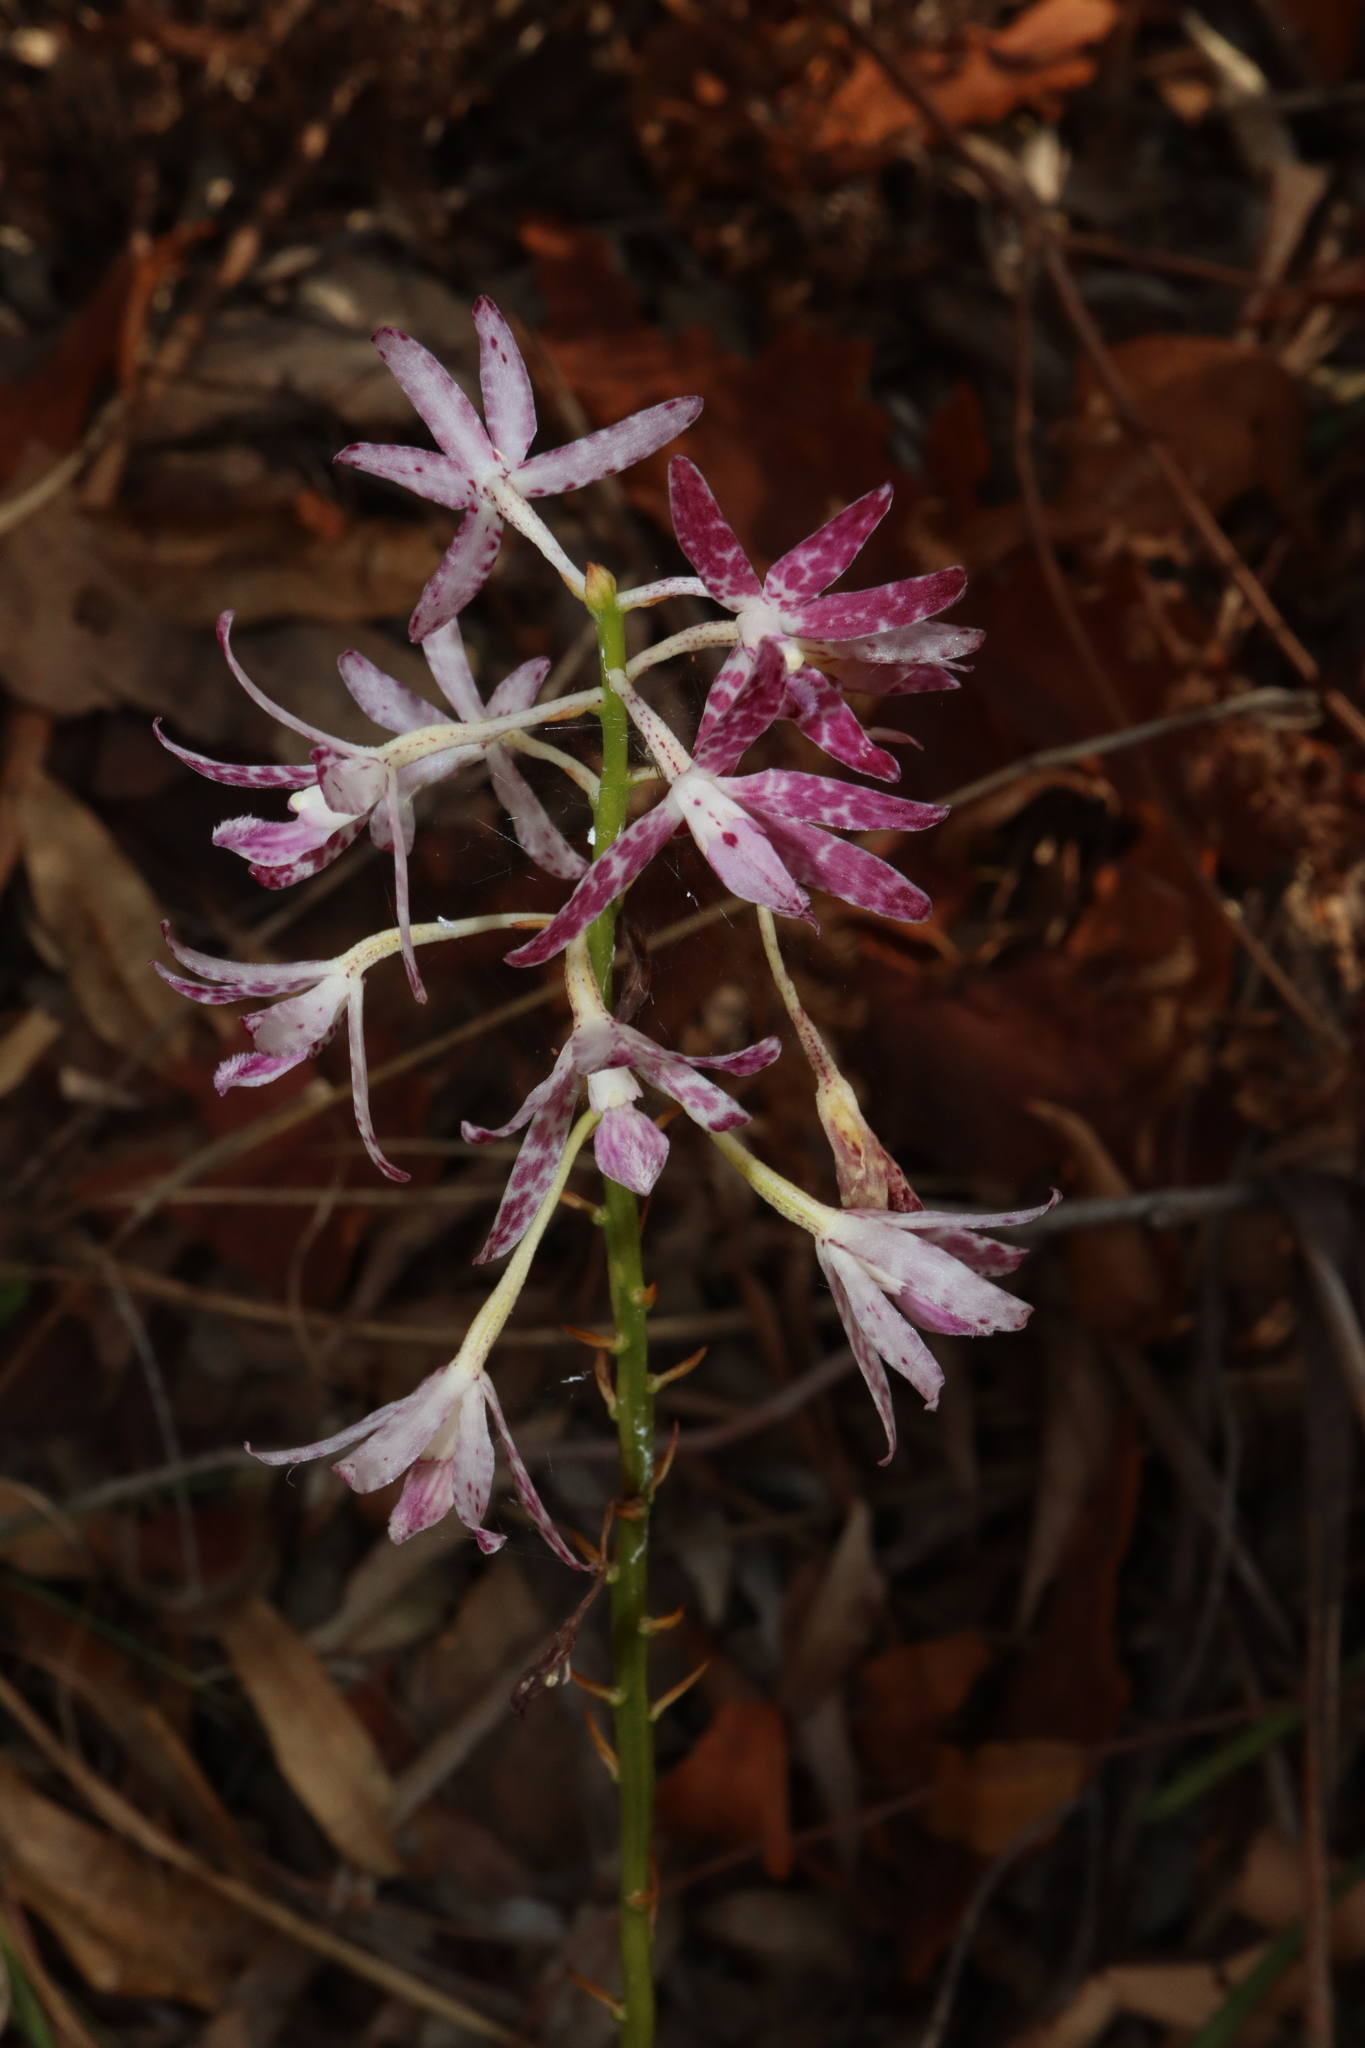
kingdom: Plantae
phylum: Tracheophyta
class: Liliopsida
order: Asparagales
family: Orchidaceae
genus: Dipodium
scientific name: Dipodium variegatum
